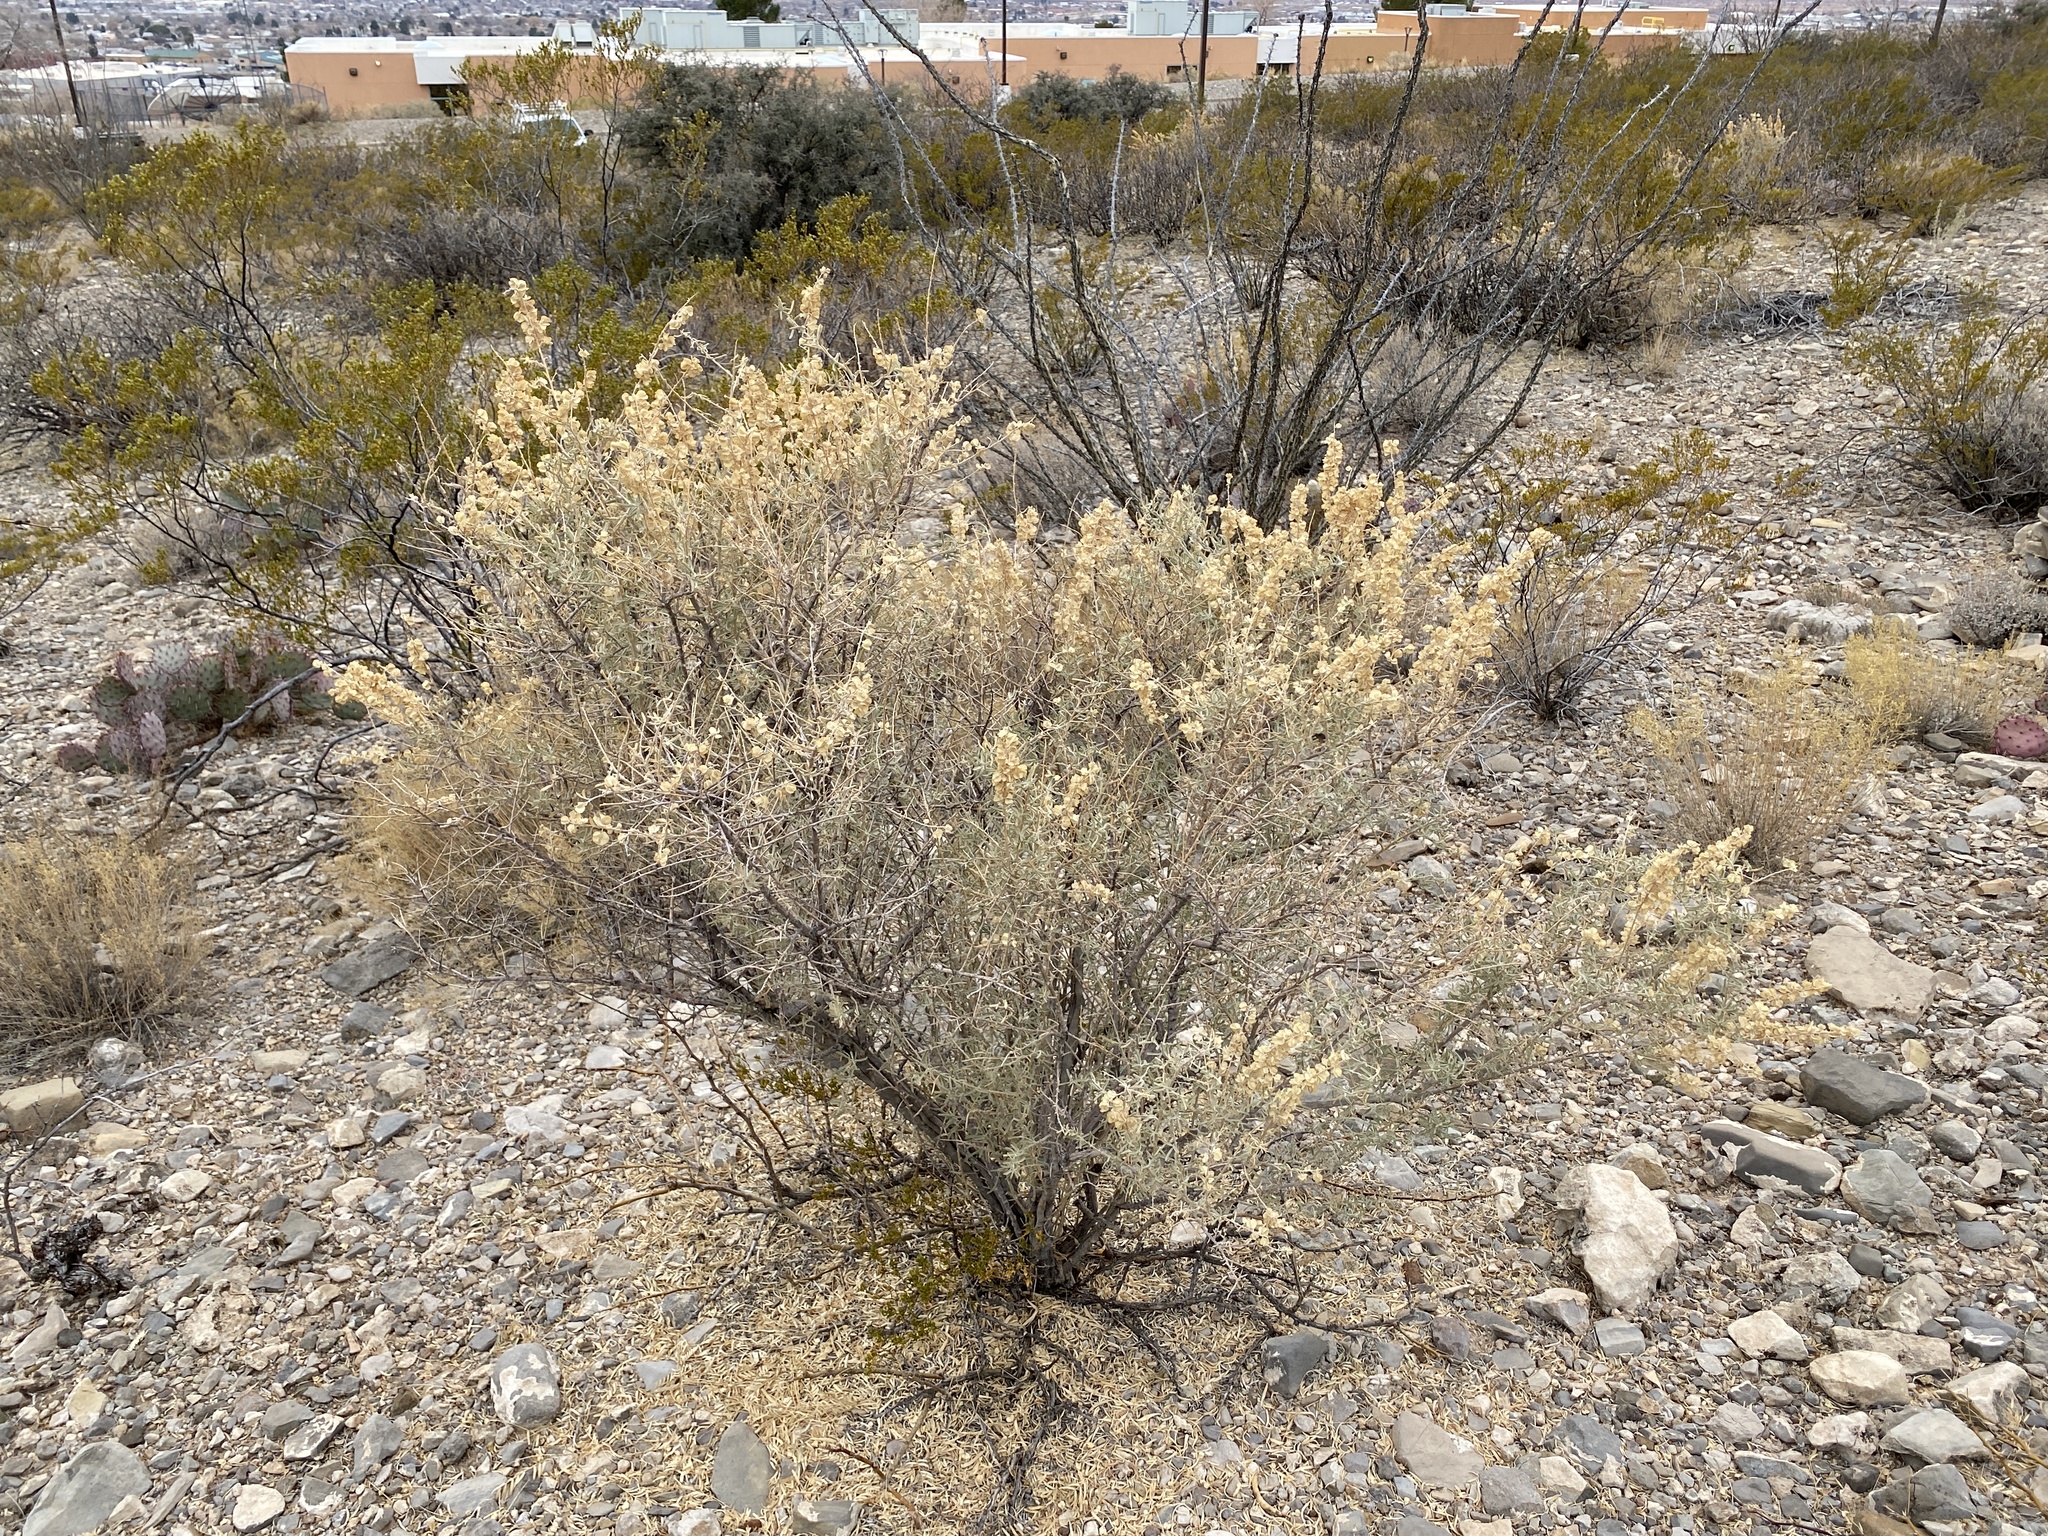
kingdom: Plantae
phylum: Tracheophyta
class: Magnoliopsida
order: Caryophyllales
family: Amaranthaceae
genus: Atriplex
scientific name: Atriplex canescens
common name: Four-wing saltbush
